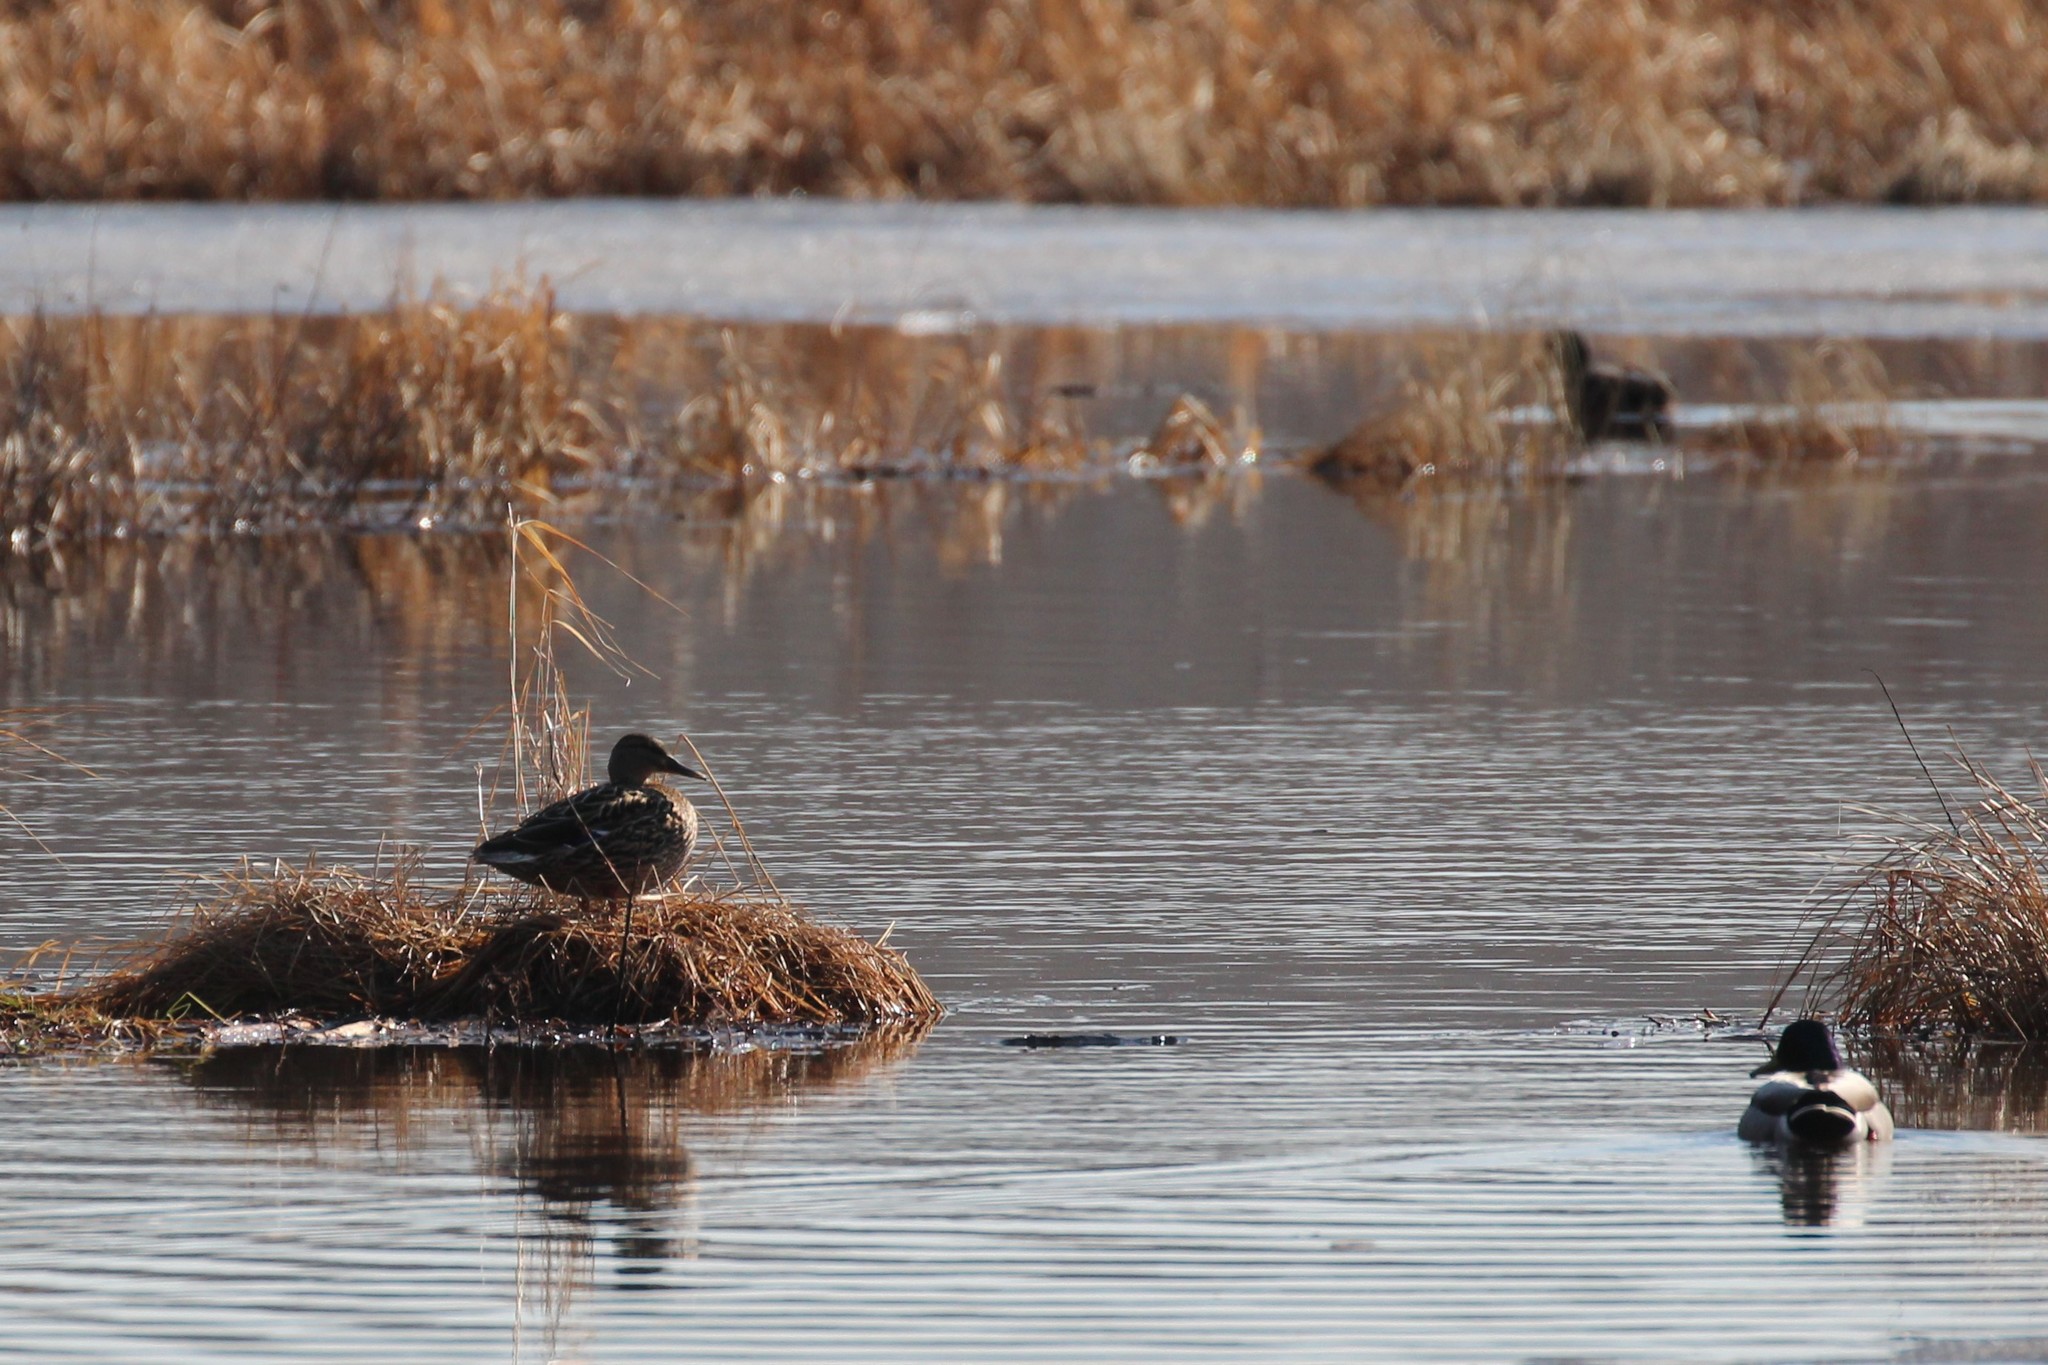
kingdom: Animalia
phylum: Chordata
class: Aves
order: Anseriformes
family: Anatidae
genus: Anas
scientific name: Anas platyrhynchos
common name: Mallard
